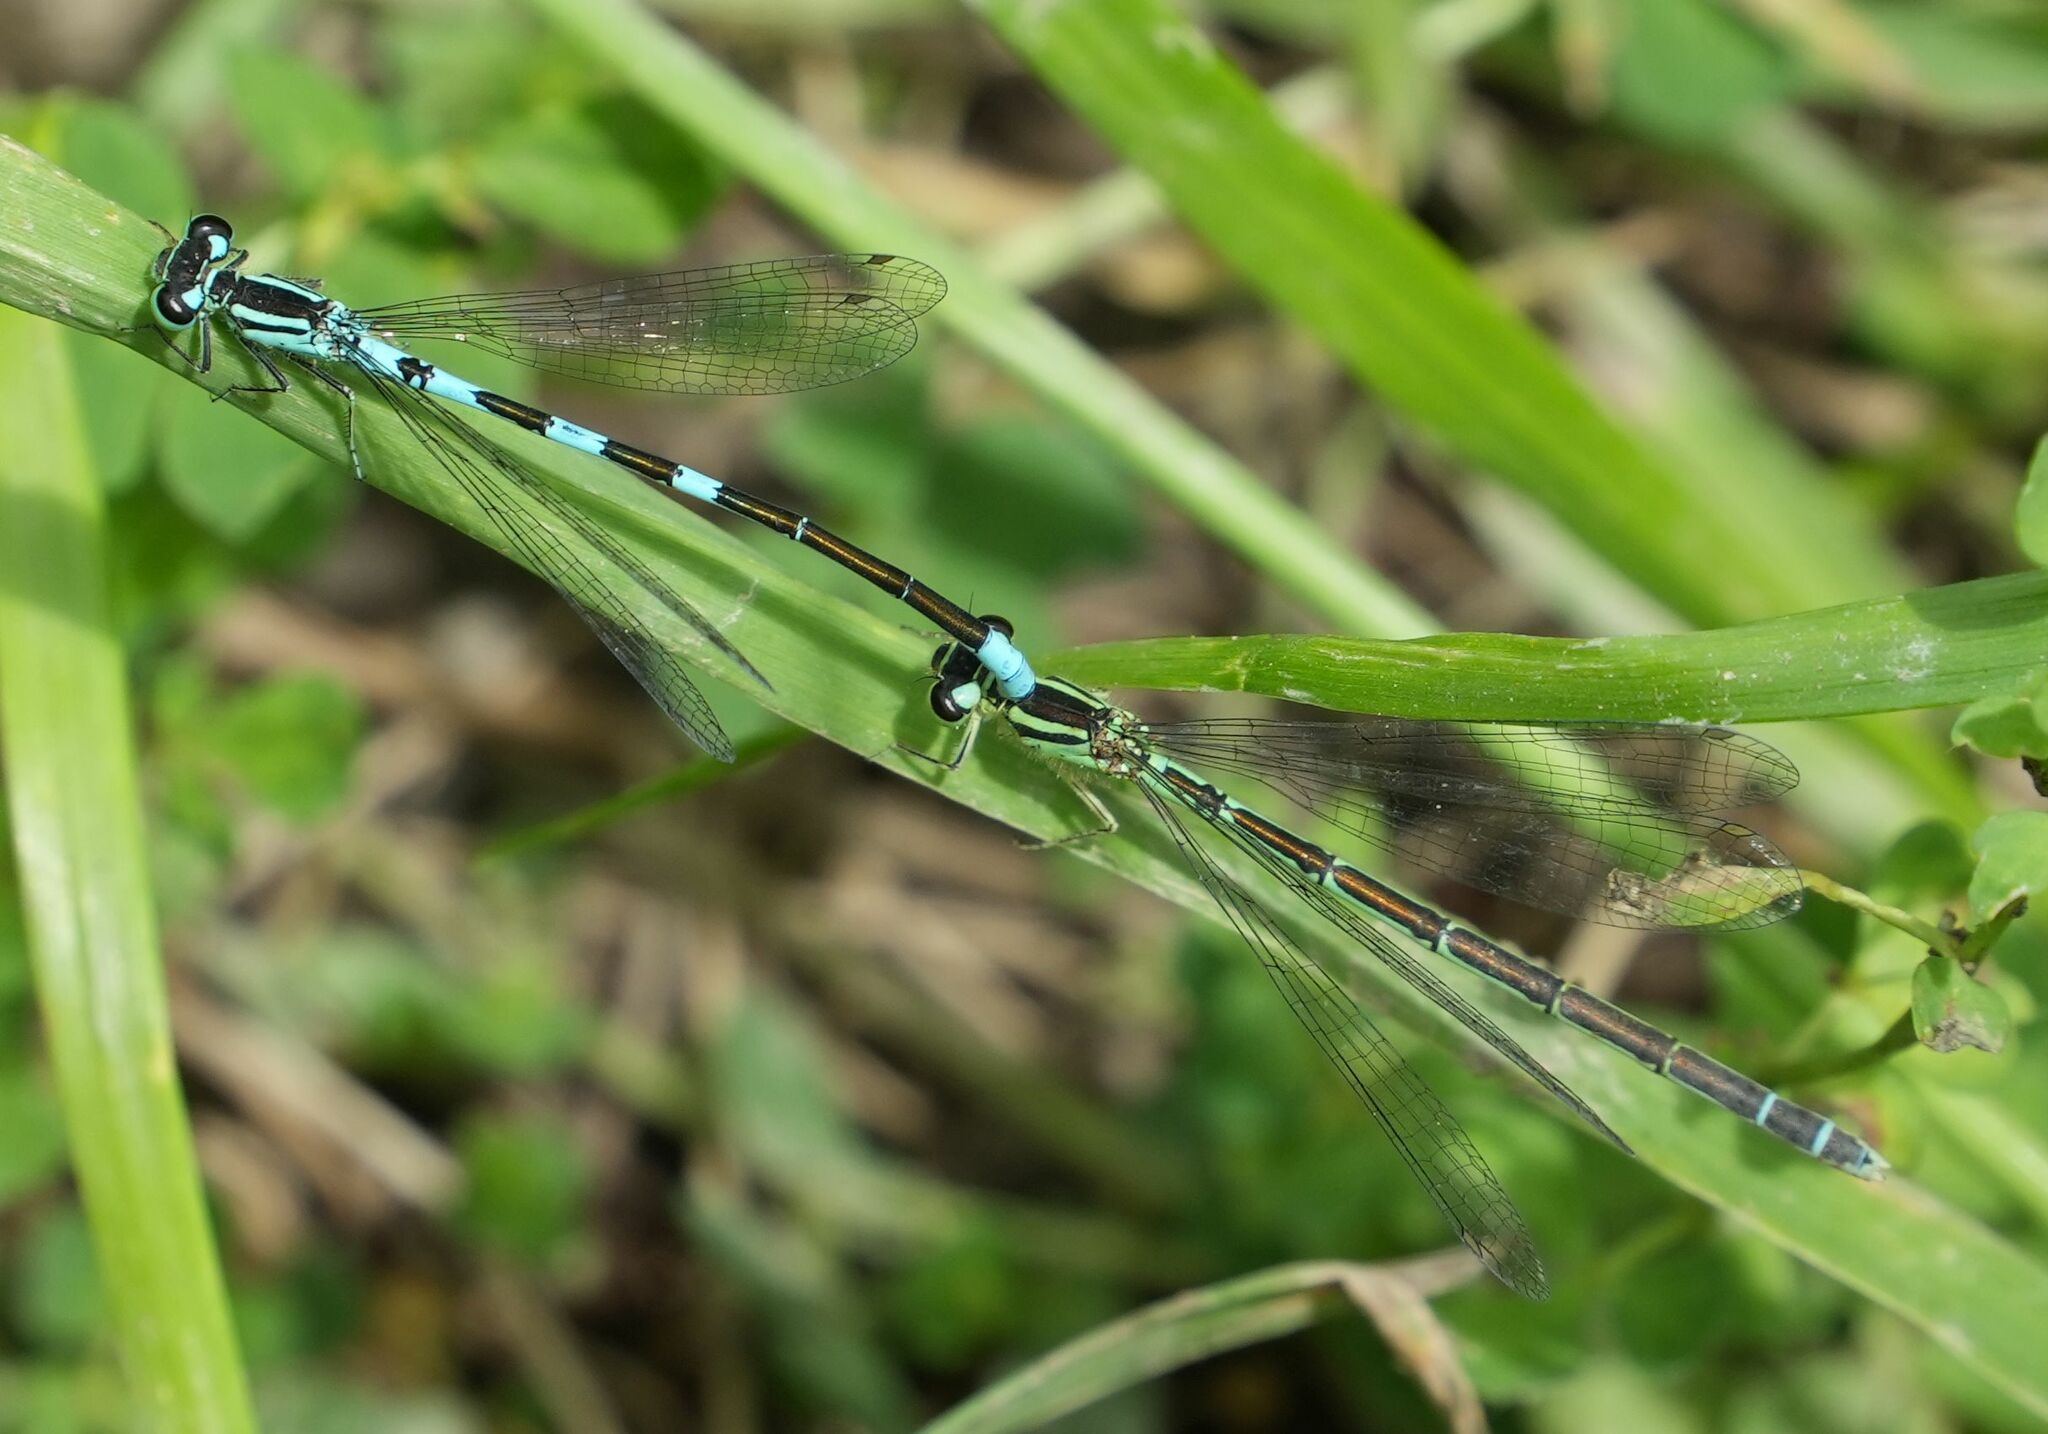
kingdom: Animalia
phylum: Arthropoda
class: Insecta
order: Odonata
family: Coenagrionidae
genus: Coenagrion
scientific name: Coenagrion resolutum
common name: Taiga bluet
